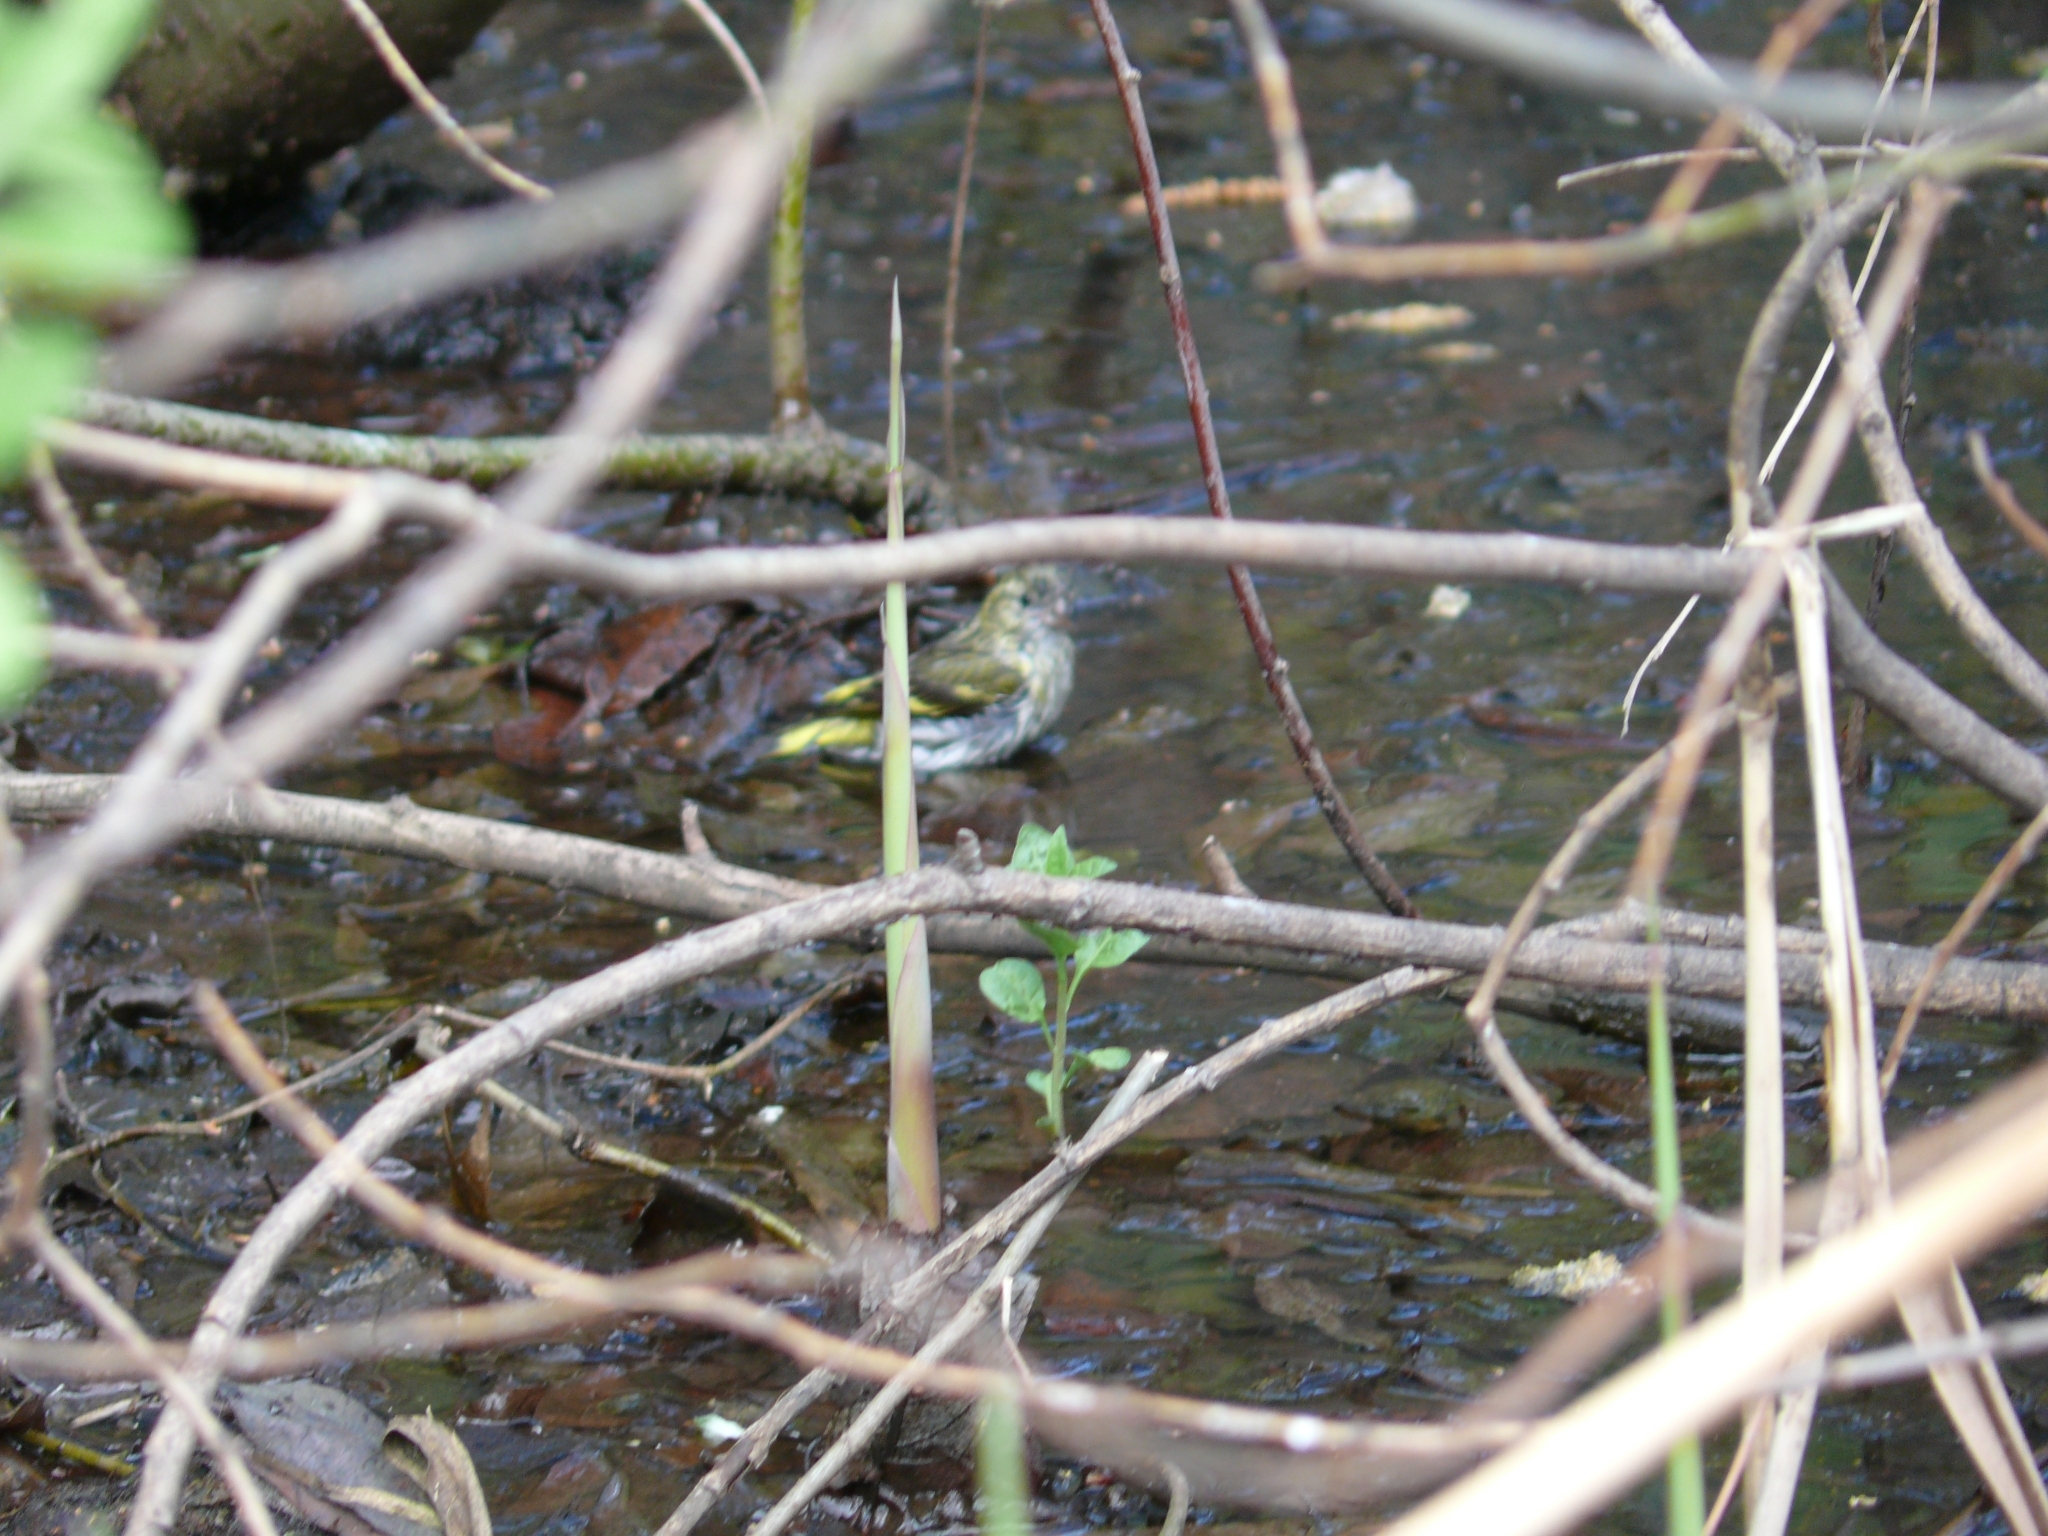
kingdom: Animalia
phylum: Chordata
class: Aves
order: Passeriformes
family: Fringillidae
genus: Spinus
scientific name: Spinus spinus
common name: Eurasian siskin
